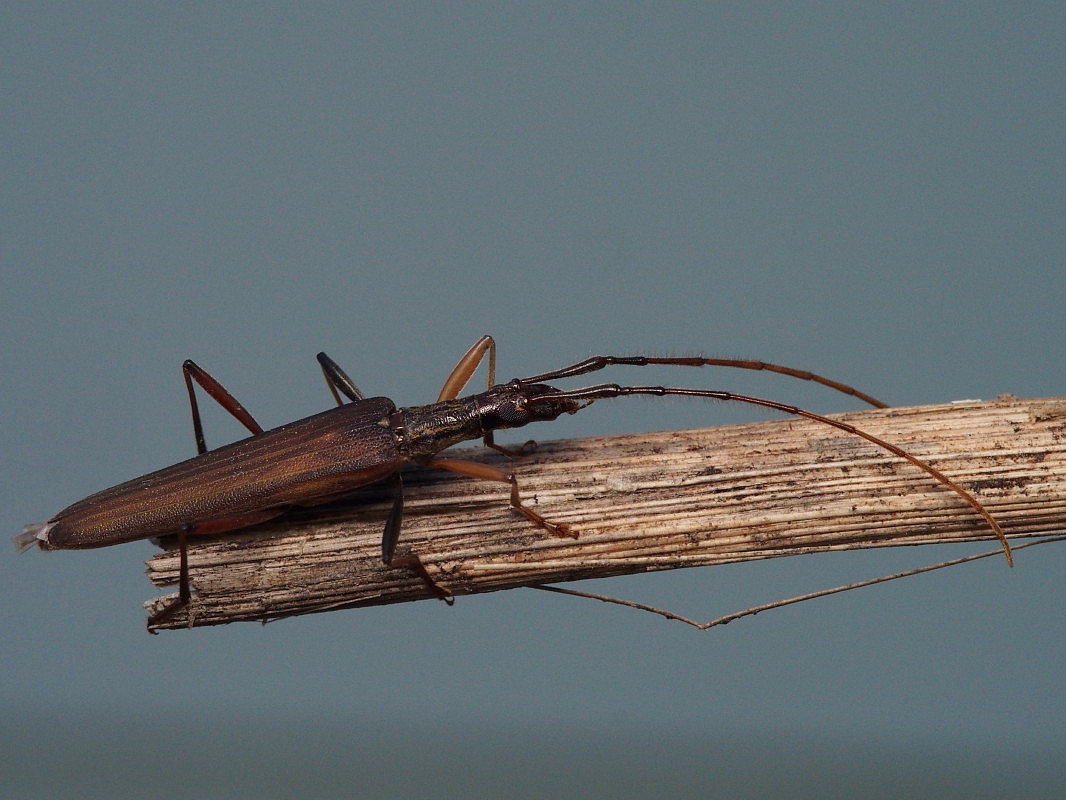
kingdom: Animalia
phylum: Arthropoda
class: Insecta
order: Coleoptera
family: Cerambycidae
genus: Stenopotes
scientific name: Stenopotes pallidus
